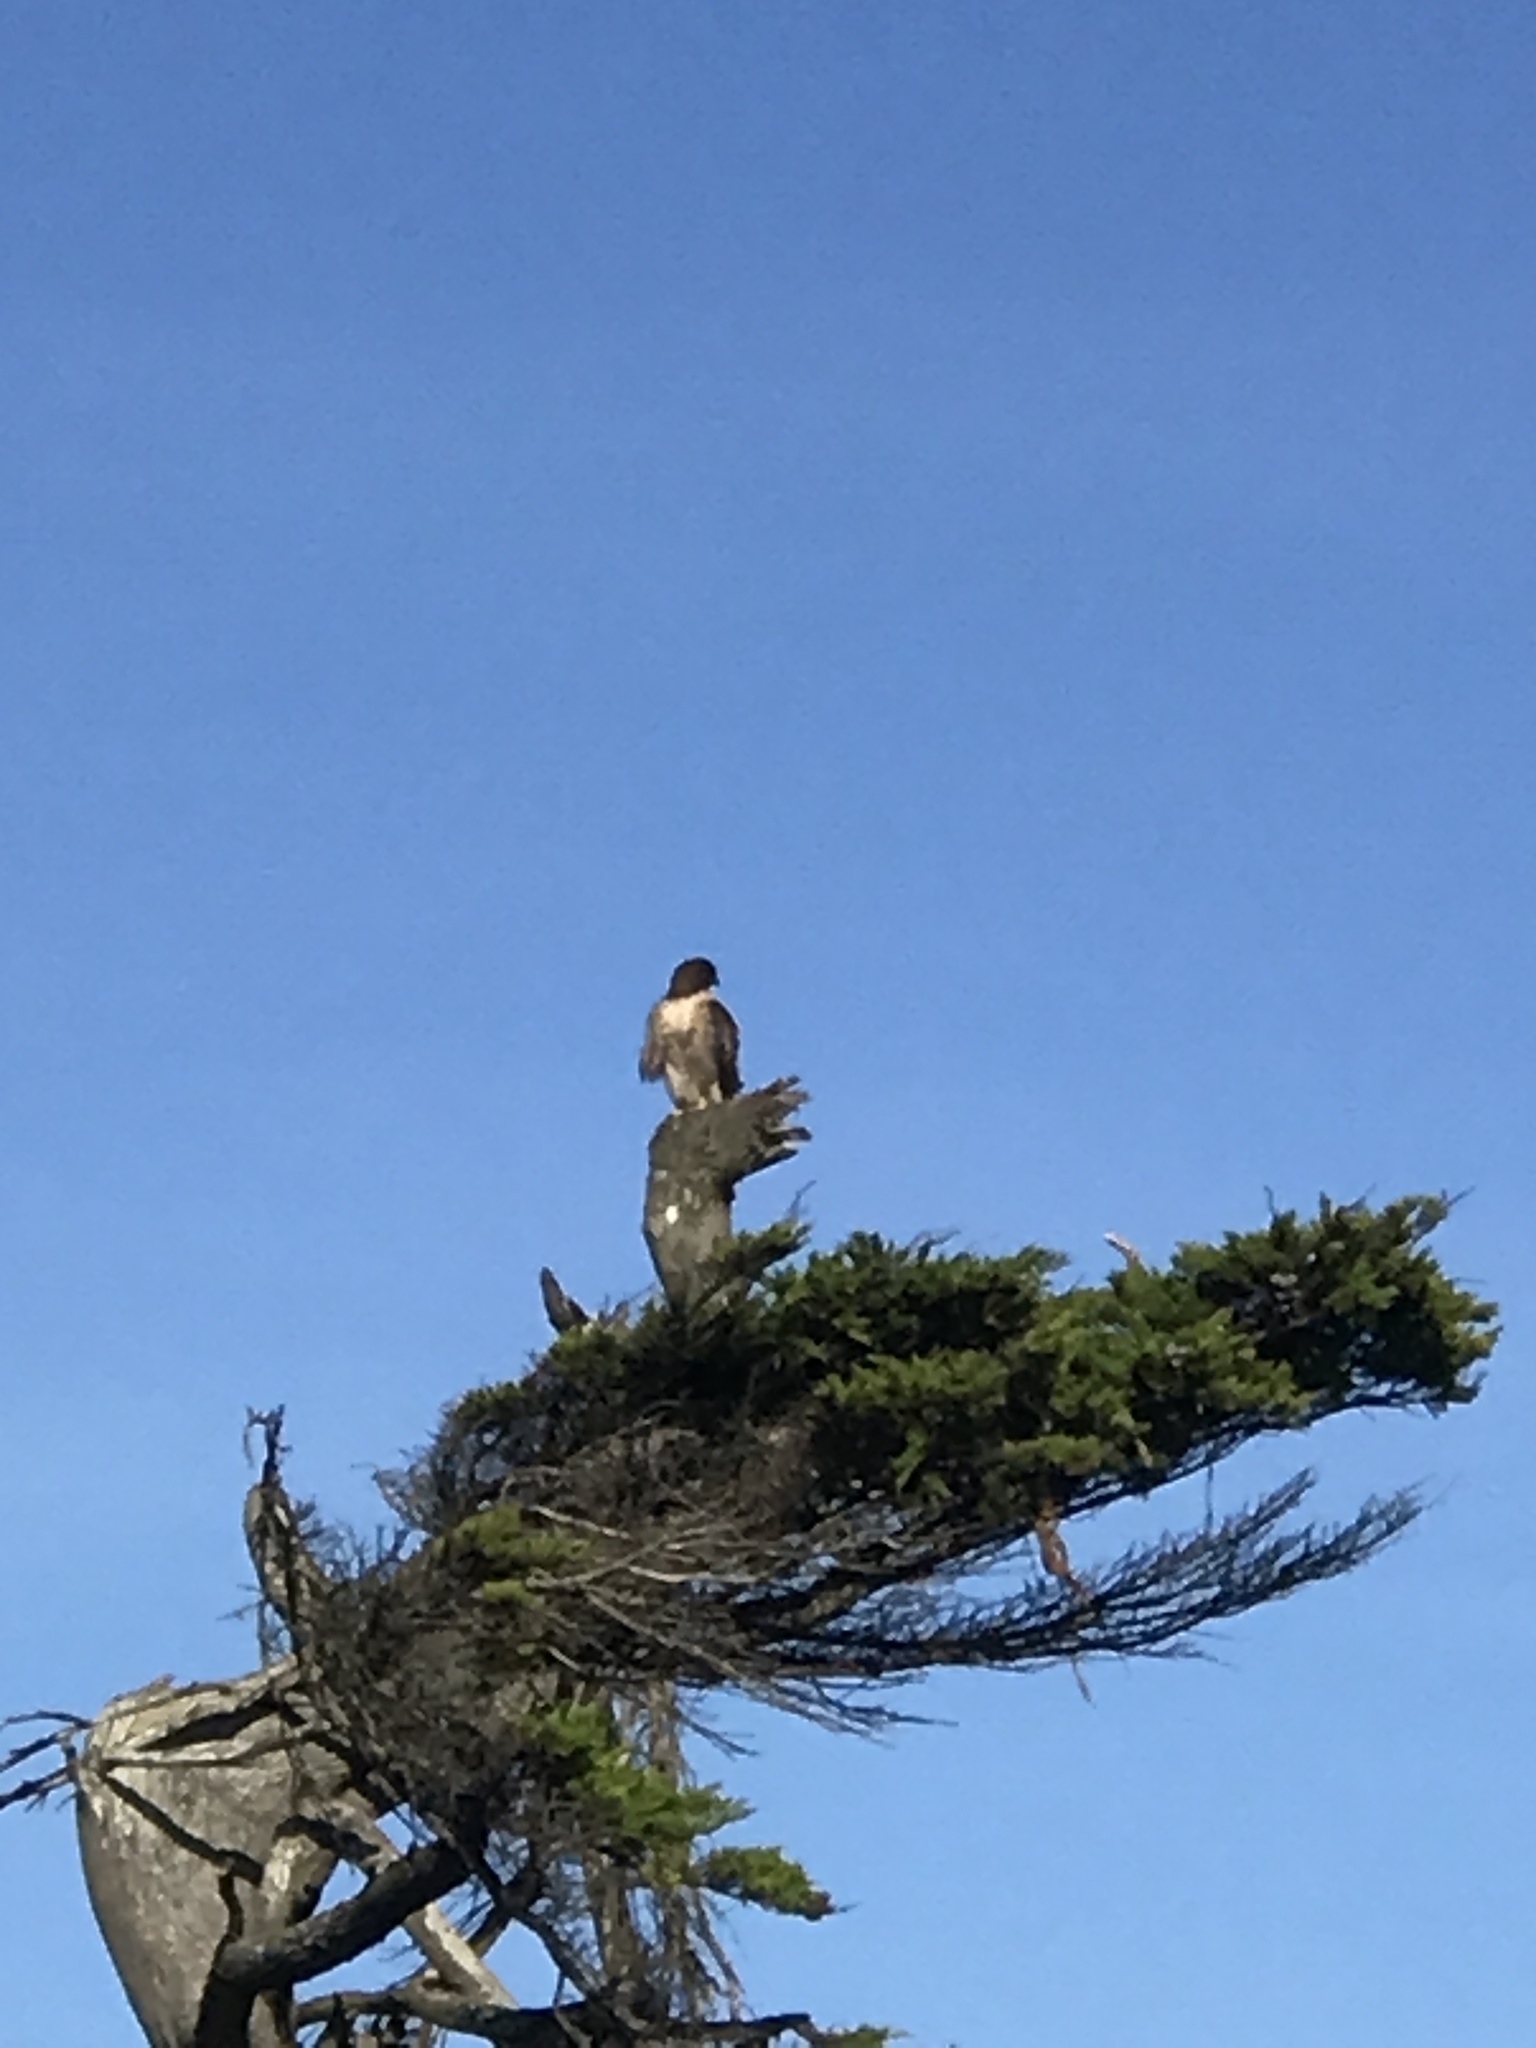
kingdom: Animalia
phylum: Chordata
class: Aves
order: Accipitriformes
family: Accipitridae
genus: Buteo
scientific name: Buteo jamaicensis
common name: Red-tailed hawk
